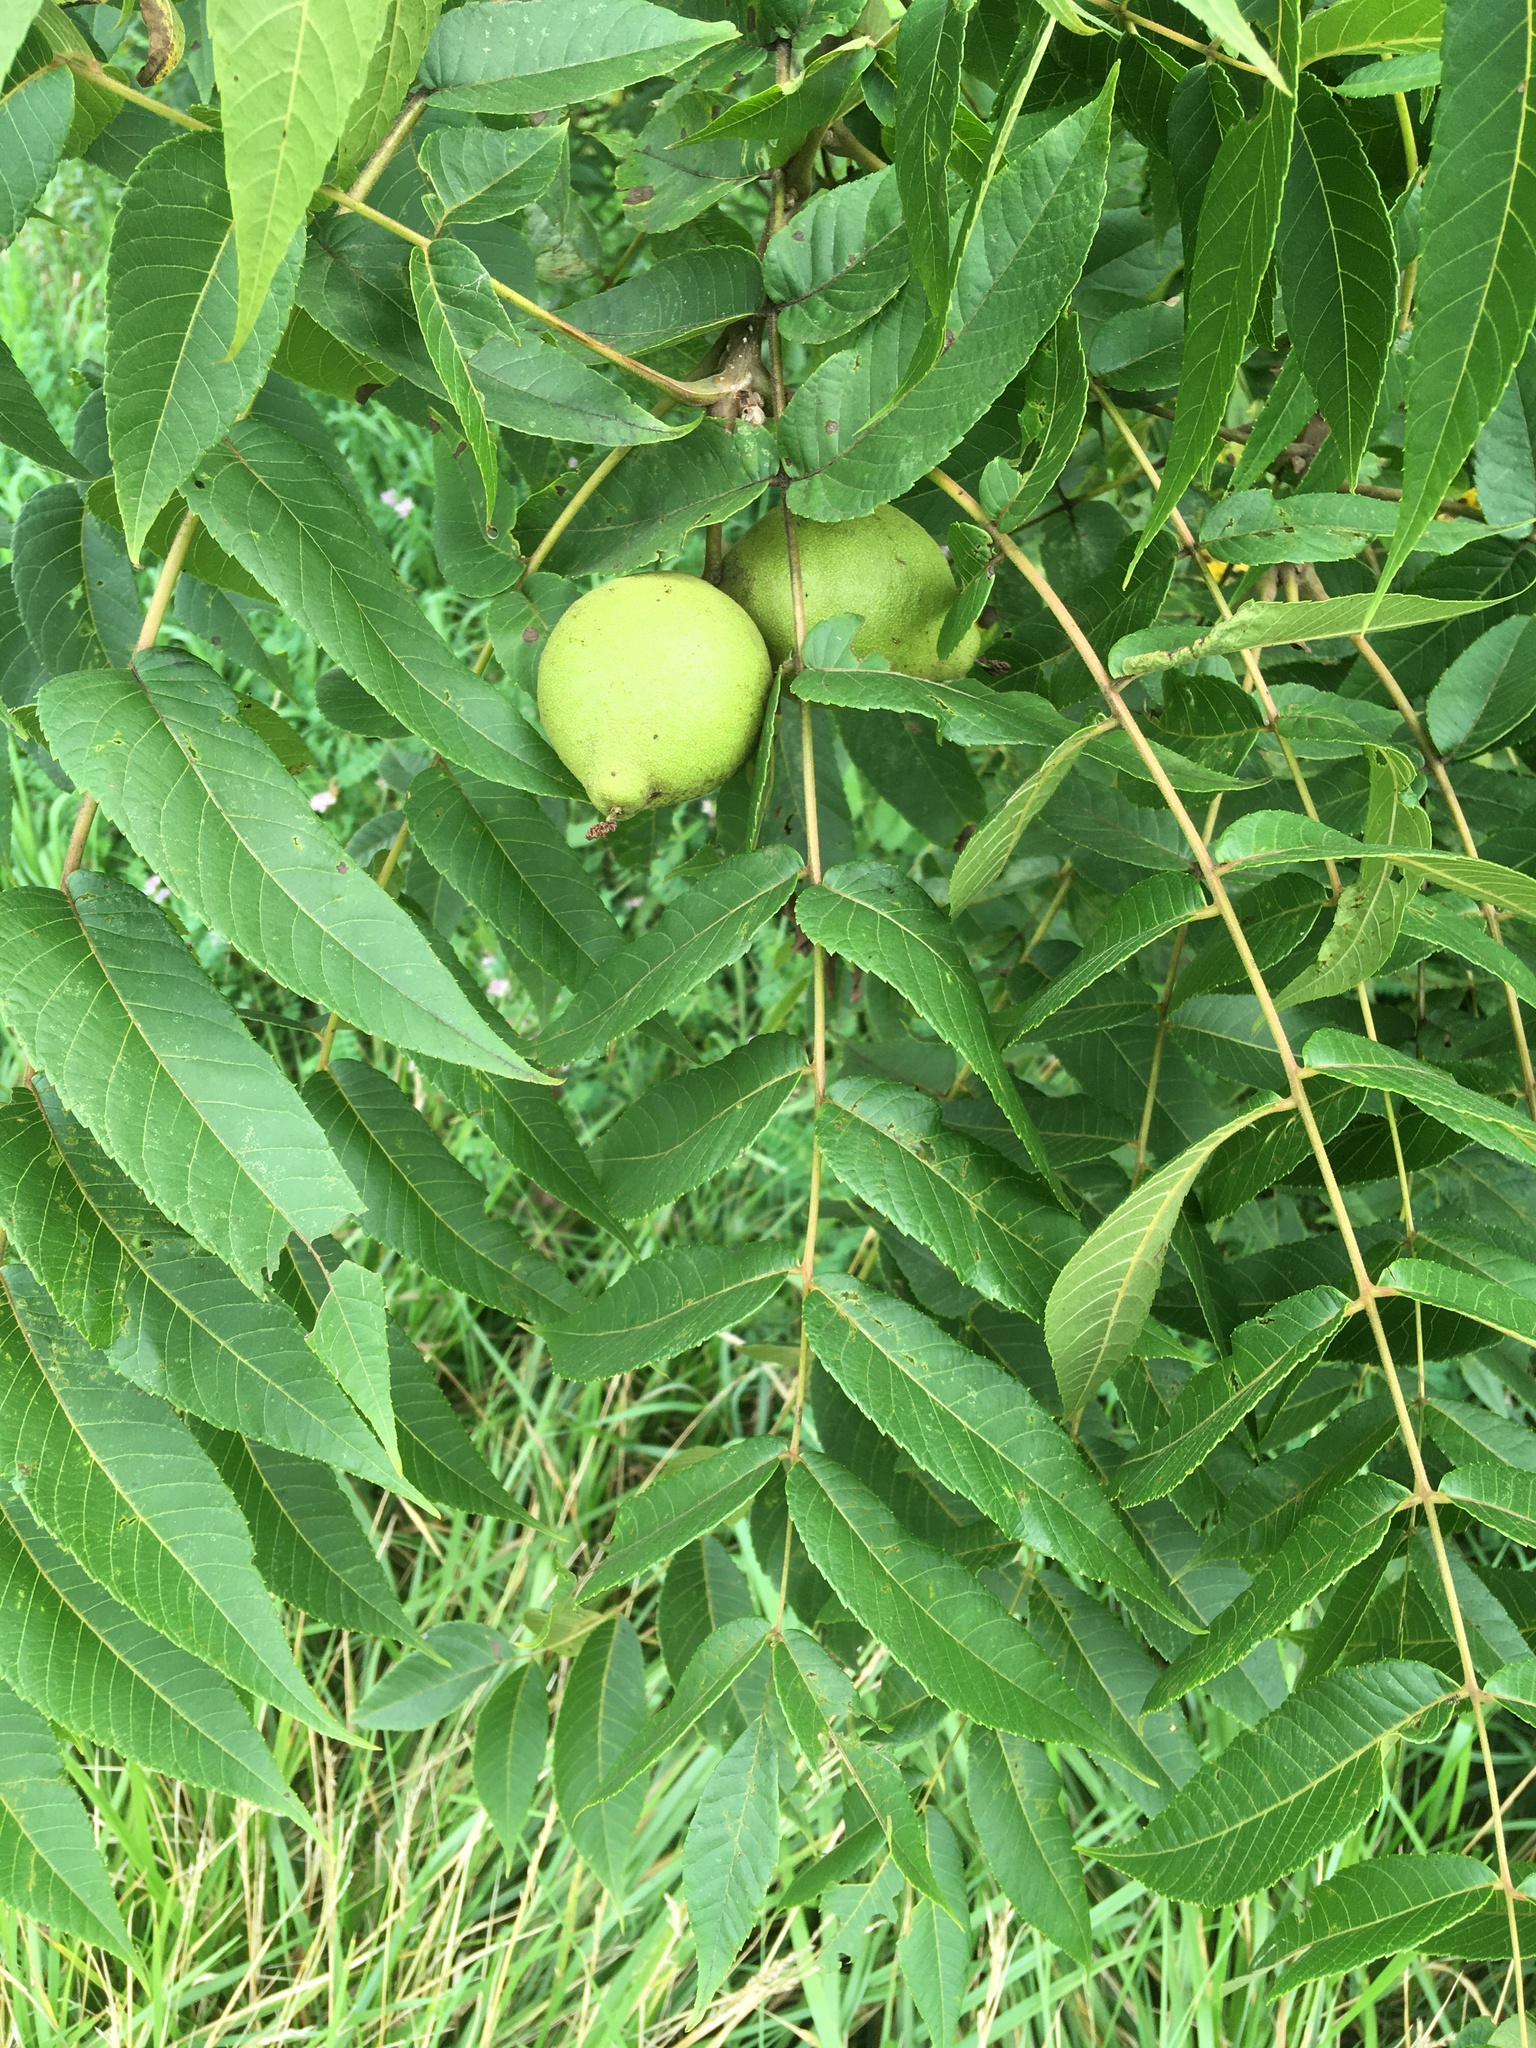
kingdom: Plantae
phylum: Tracheophyta
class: Magnoliopsida
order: Fagales
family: Juglandaceae
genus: Juglans
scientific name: Juglans nigra
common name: Black walnut
